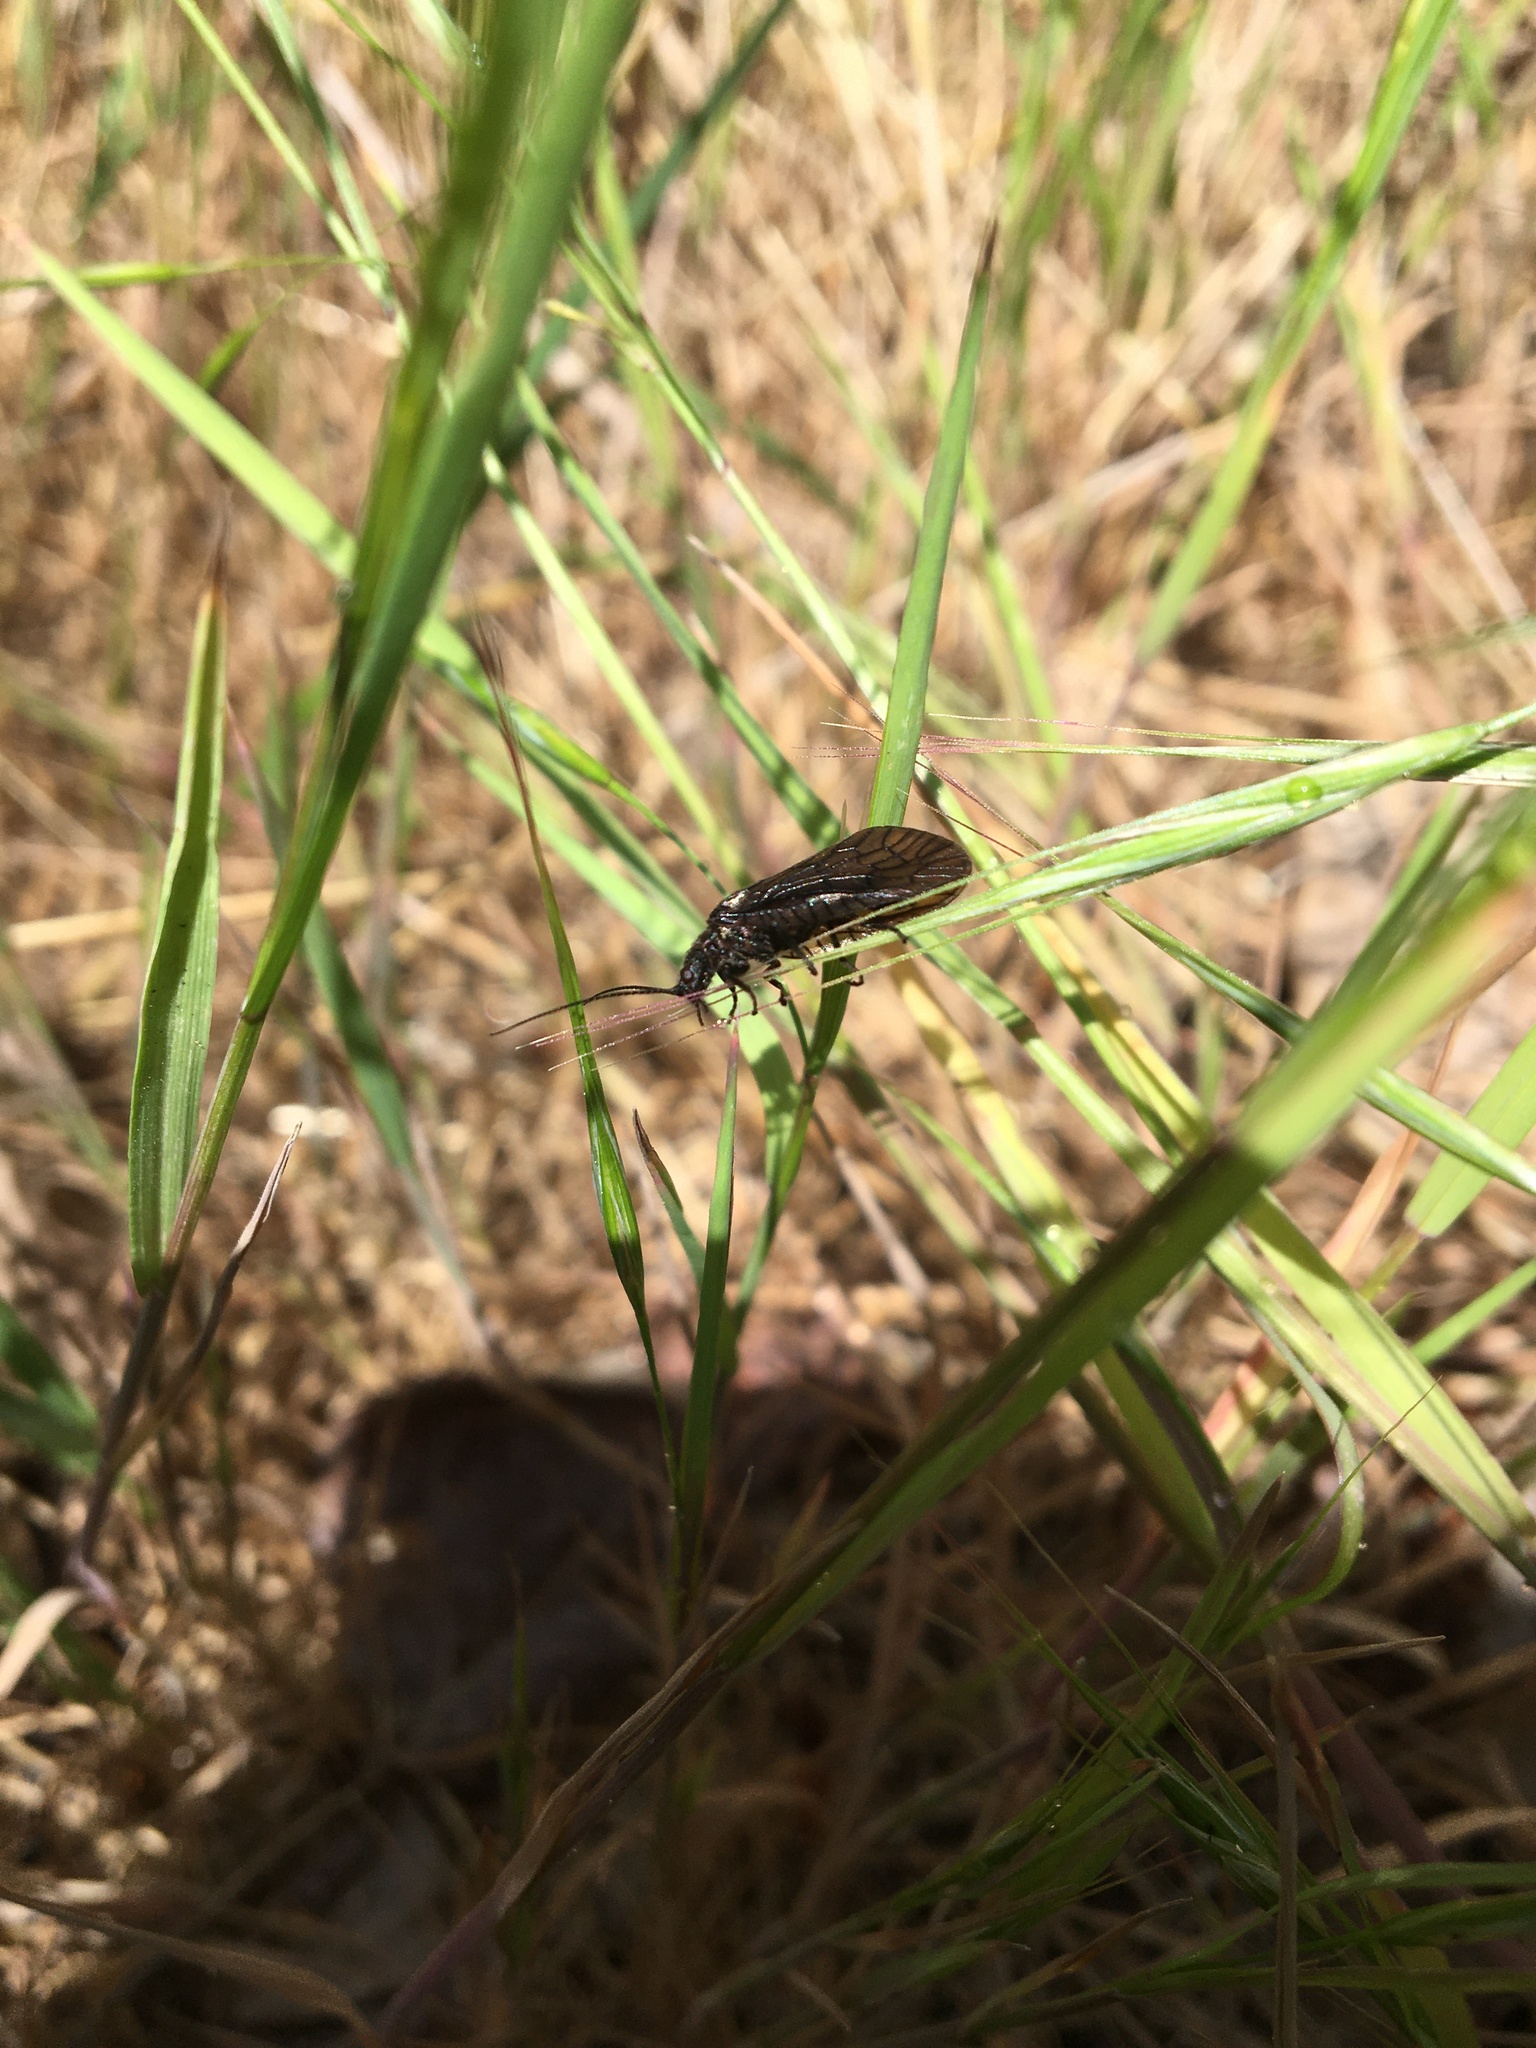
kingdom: Animalia
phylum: Arthropoda
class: Insecta
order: Megaloptera
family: Sialidae
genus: Sialis
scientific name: Sialis
